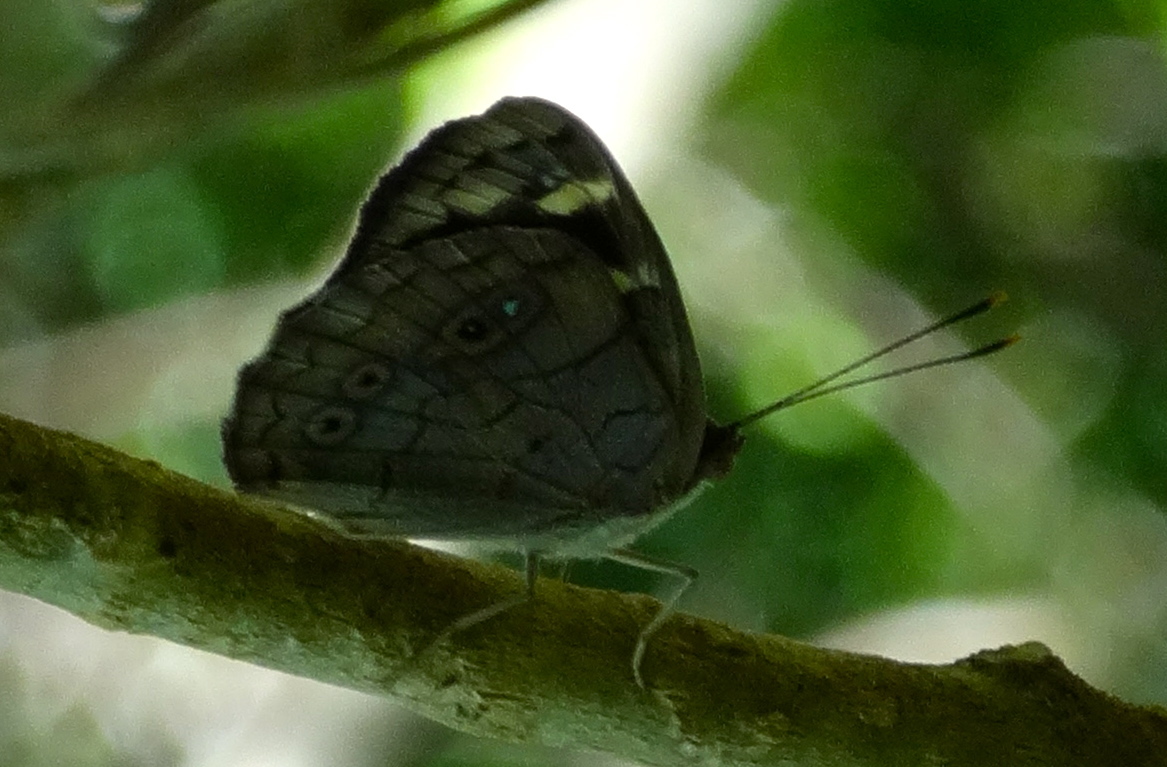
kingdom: Animalia
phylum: Arthropoda
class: Insecta
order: Lepidoptera
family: Nymphalidae
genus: Eunica
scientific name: Eunica monima
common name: Dingy purplewing
